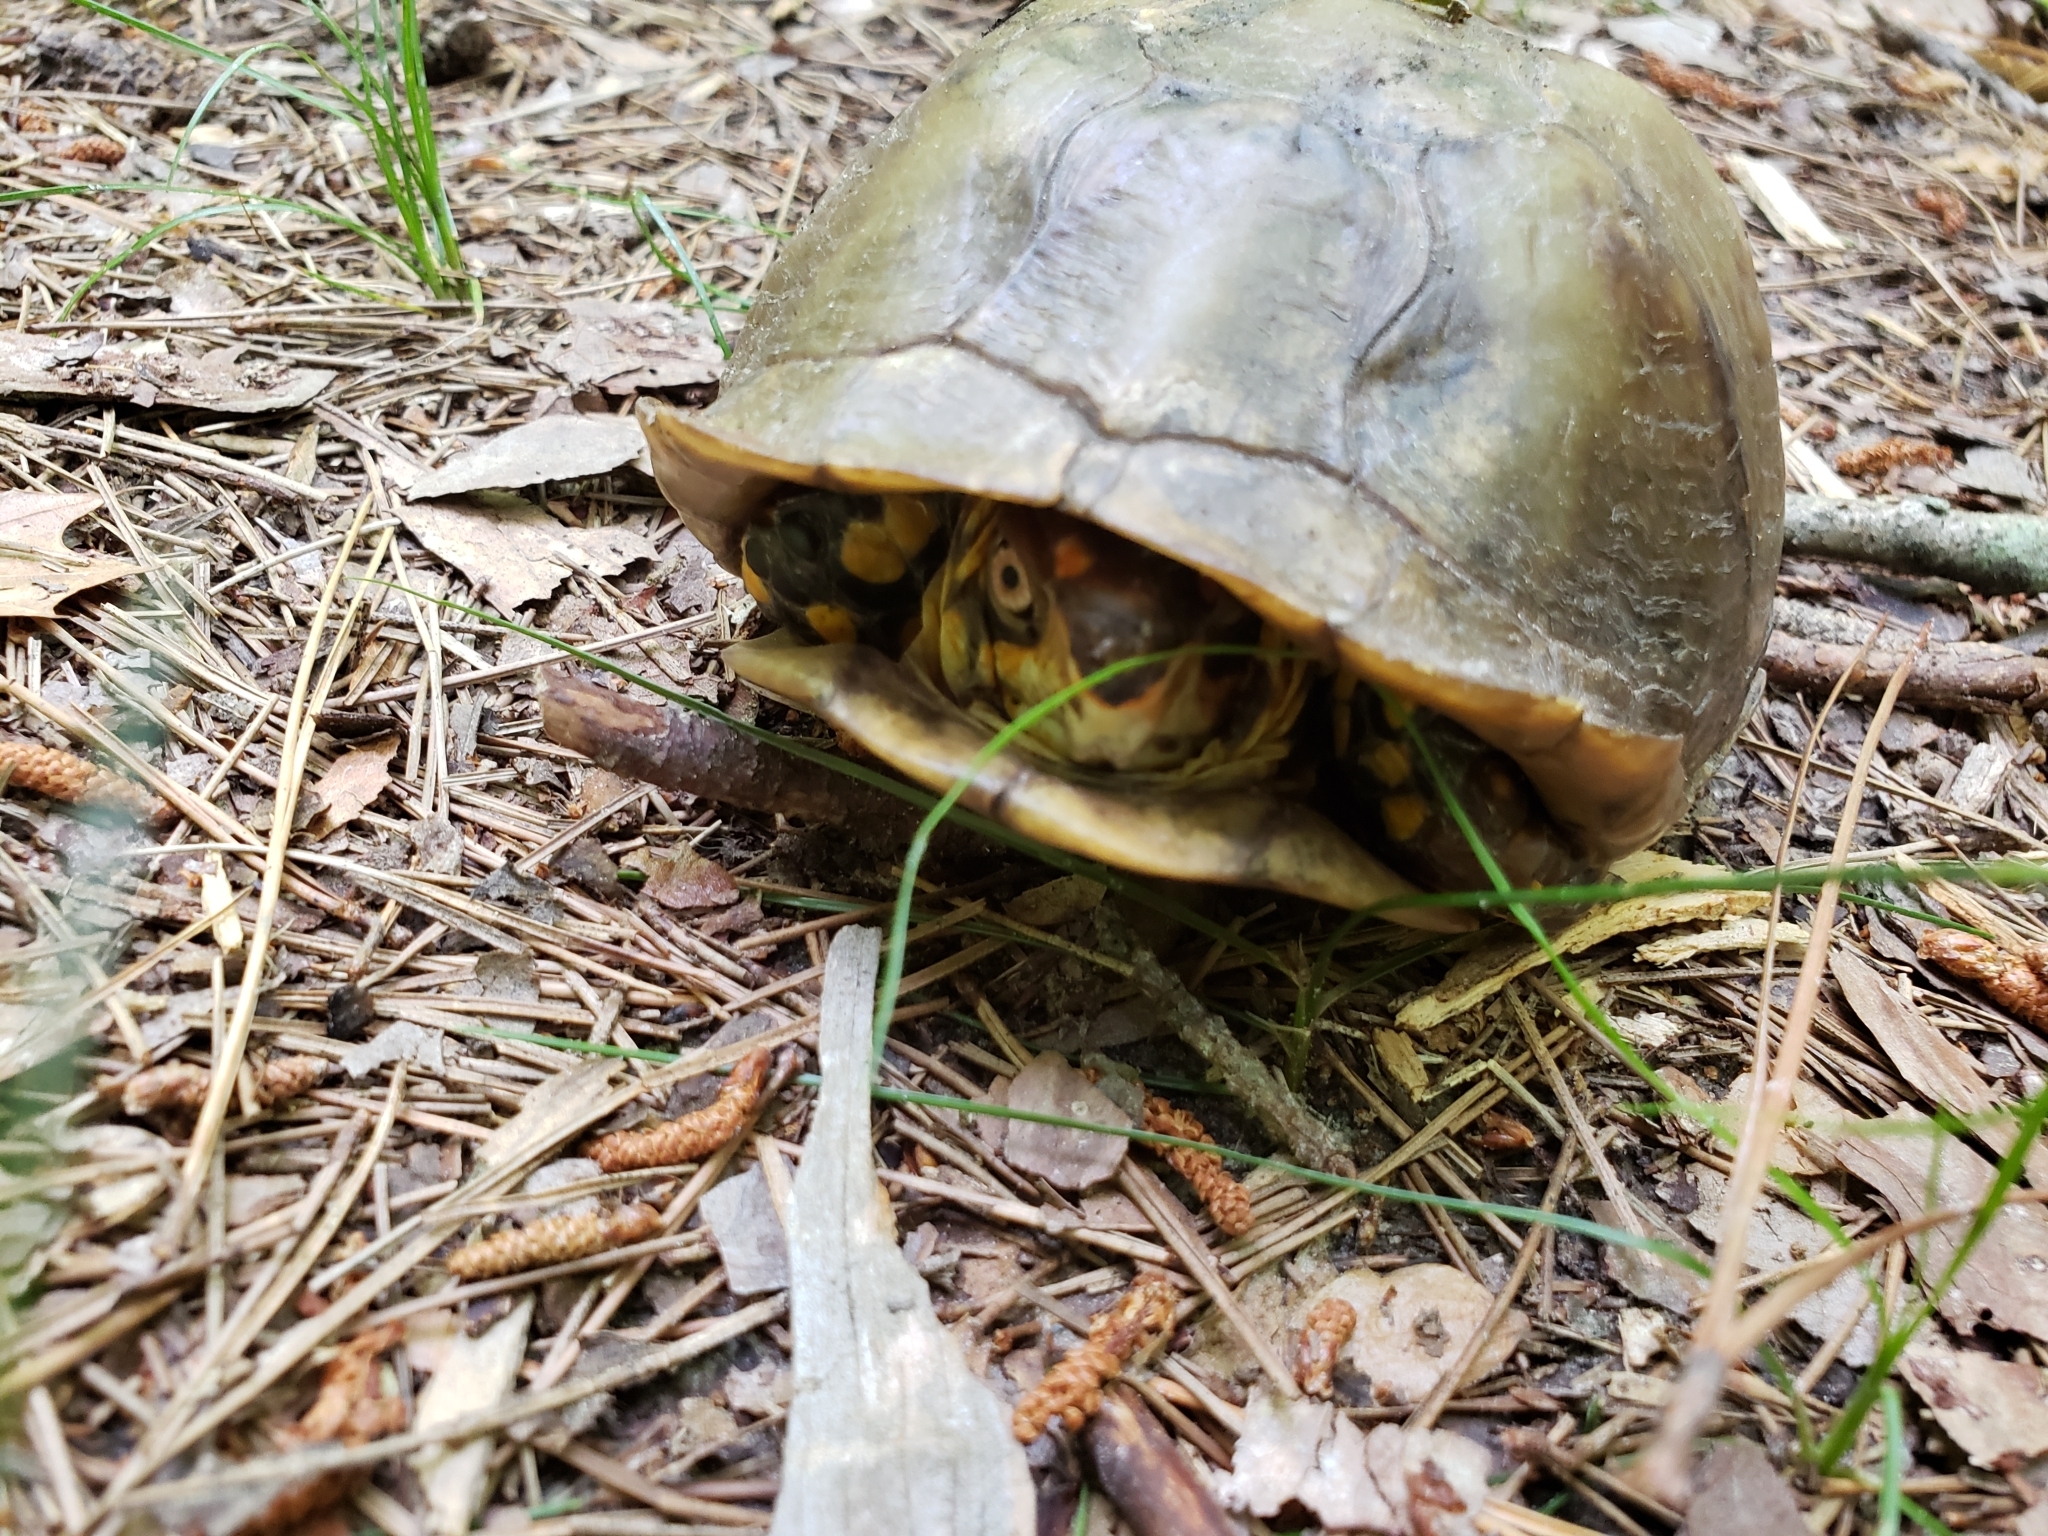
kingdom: Animalia
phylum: Chordata
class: Testudines
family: Emydidae
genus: Terrapene
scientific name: Terrapene carolina
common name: Common box turtle
